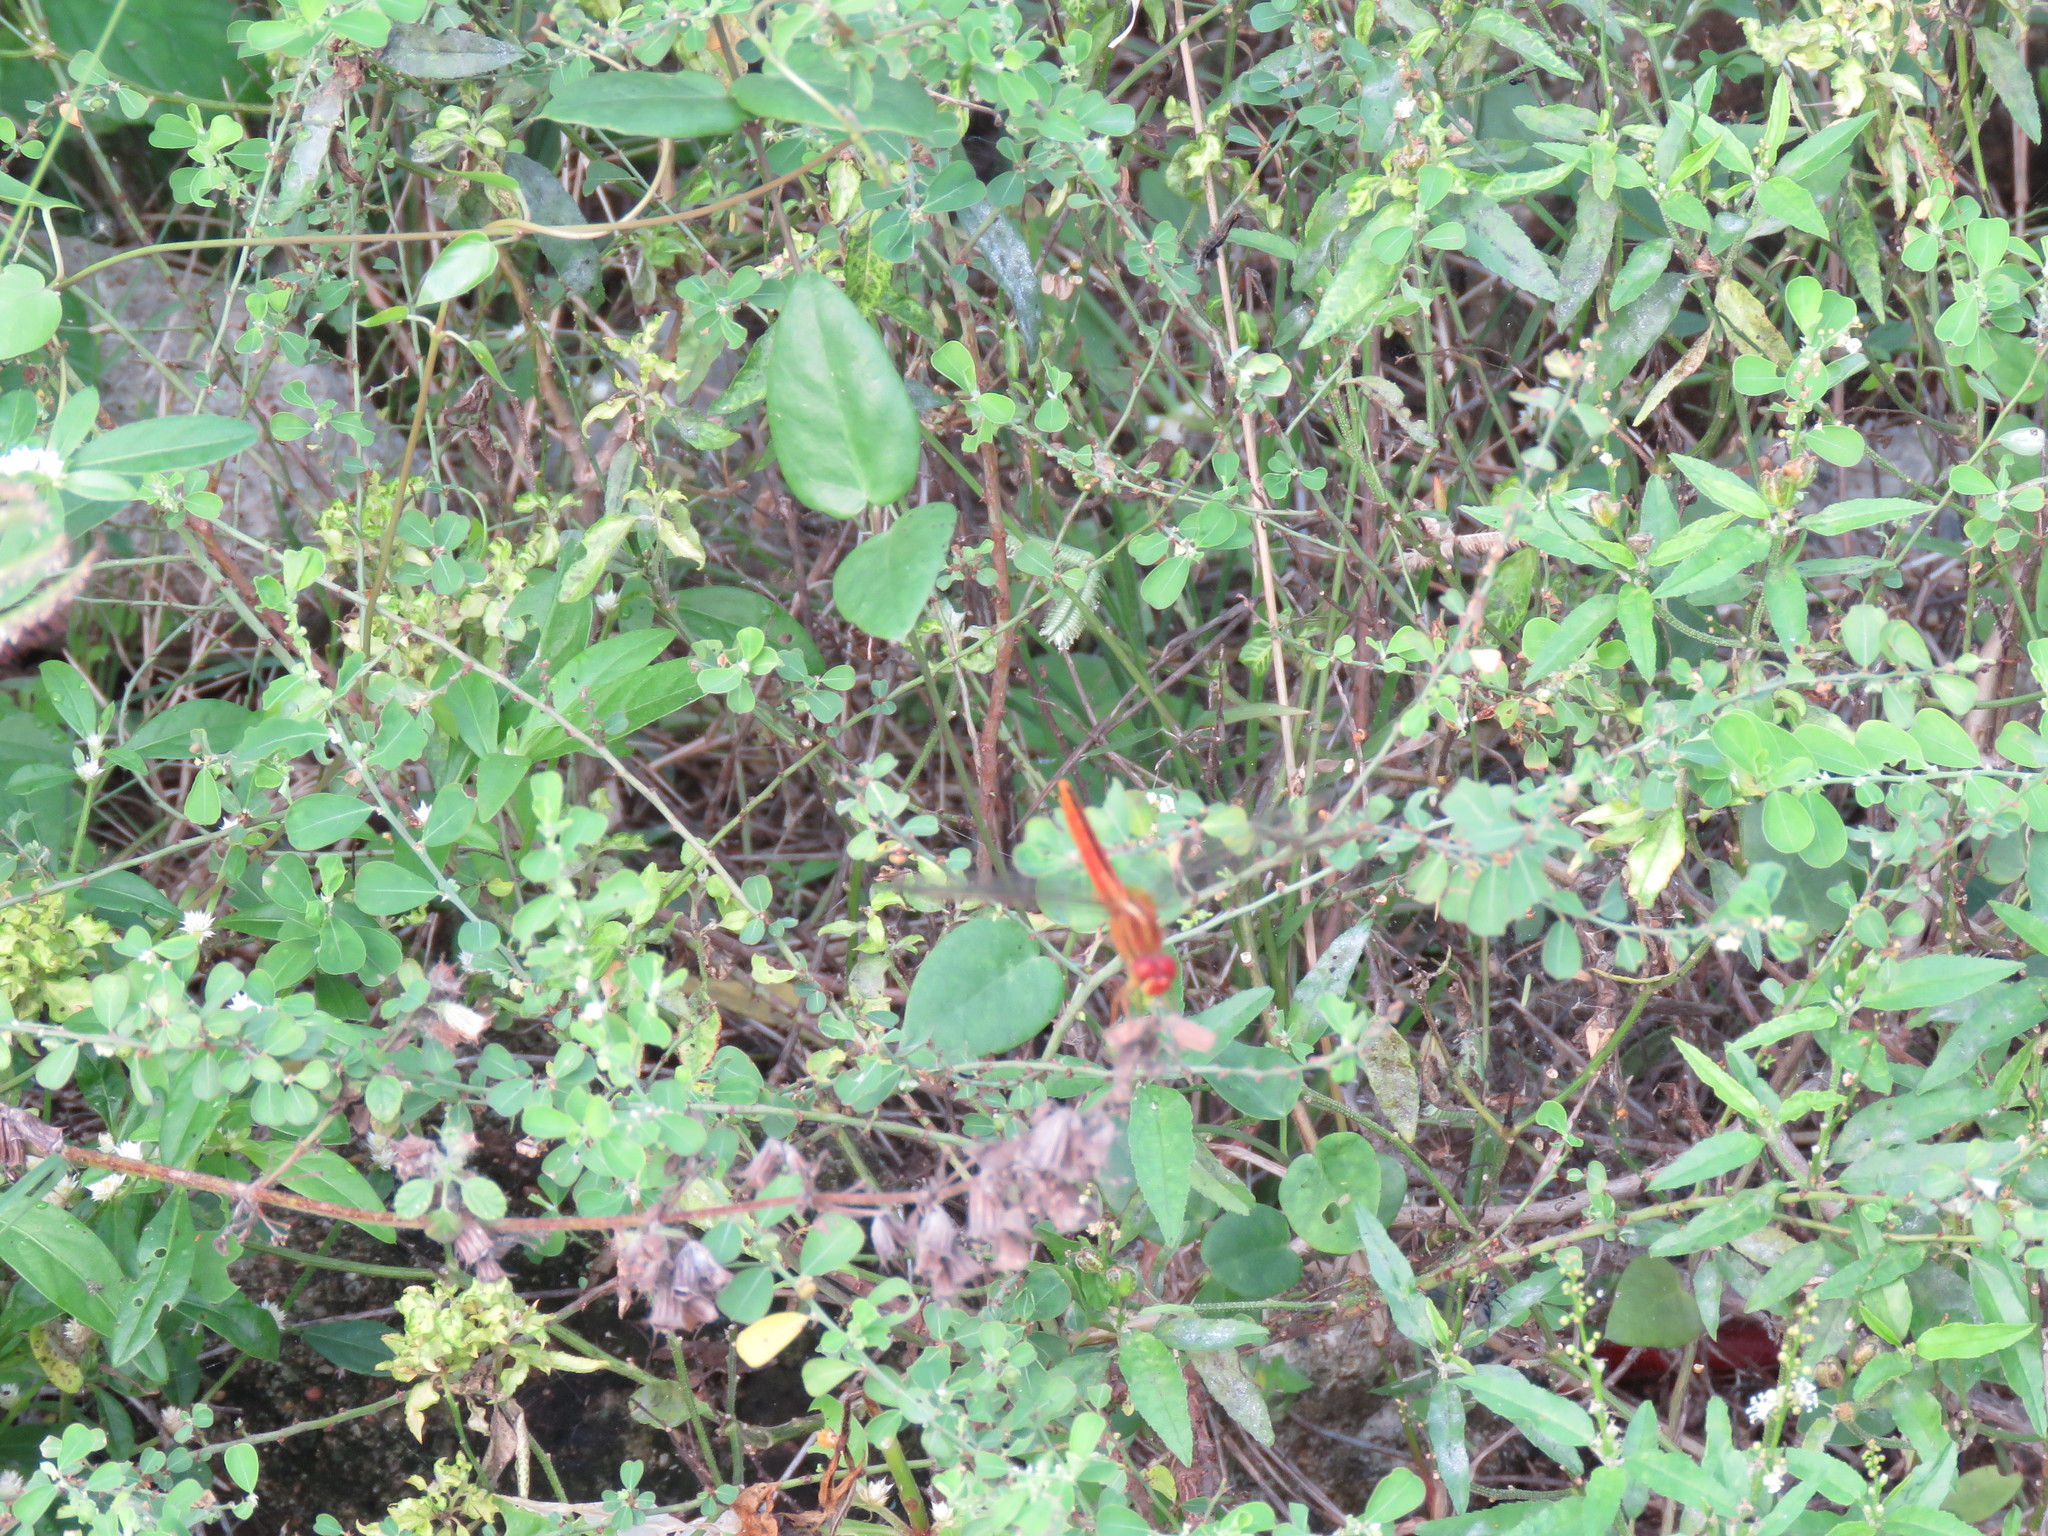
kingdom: Animalia
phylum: Arthropoda
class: Insecta
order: Odonata
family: Libellulidae
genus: Crocothemis
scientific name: Crocothemis servilia
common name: Scarlet skimmer
